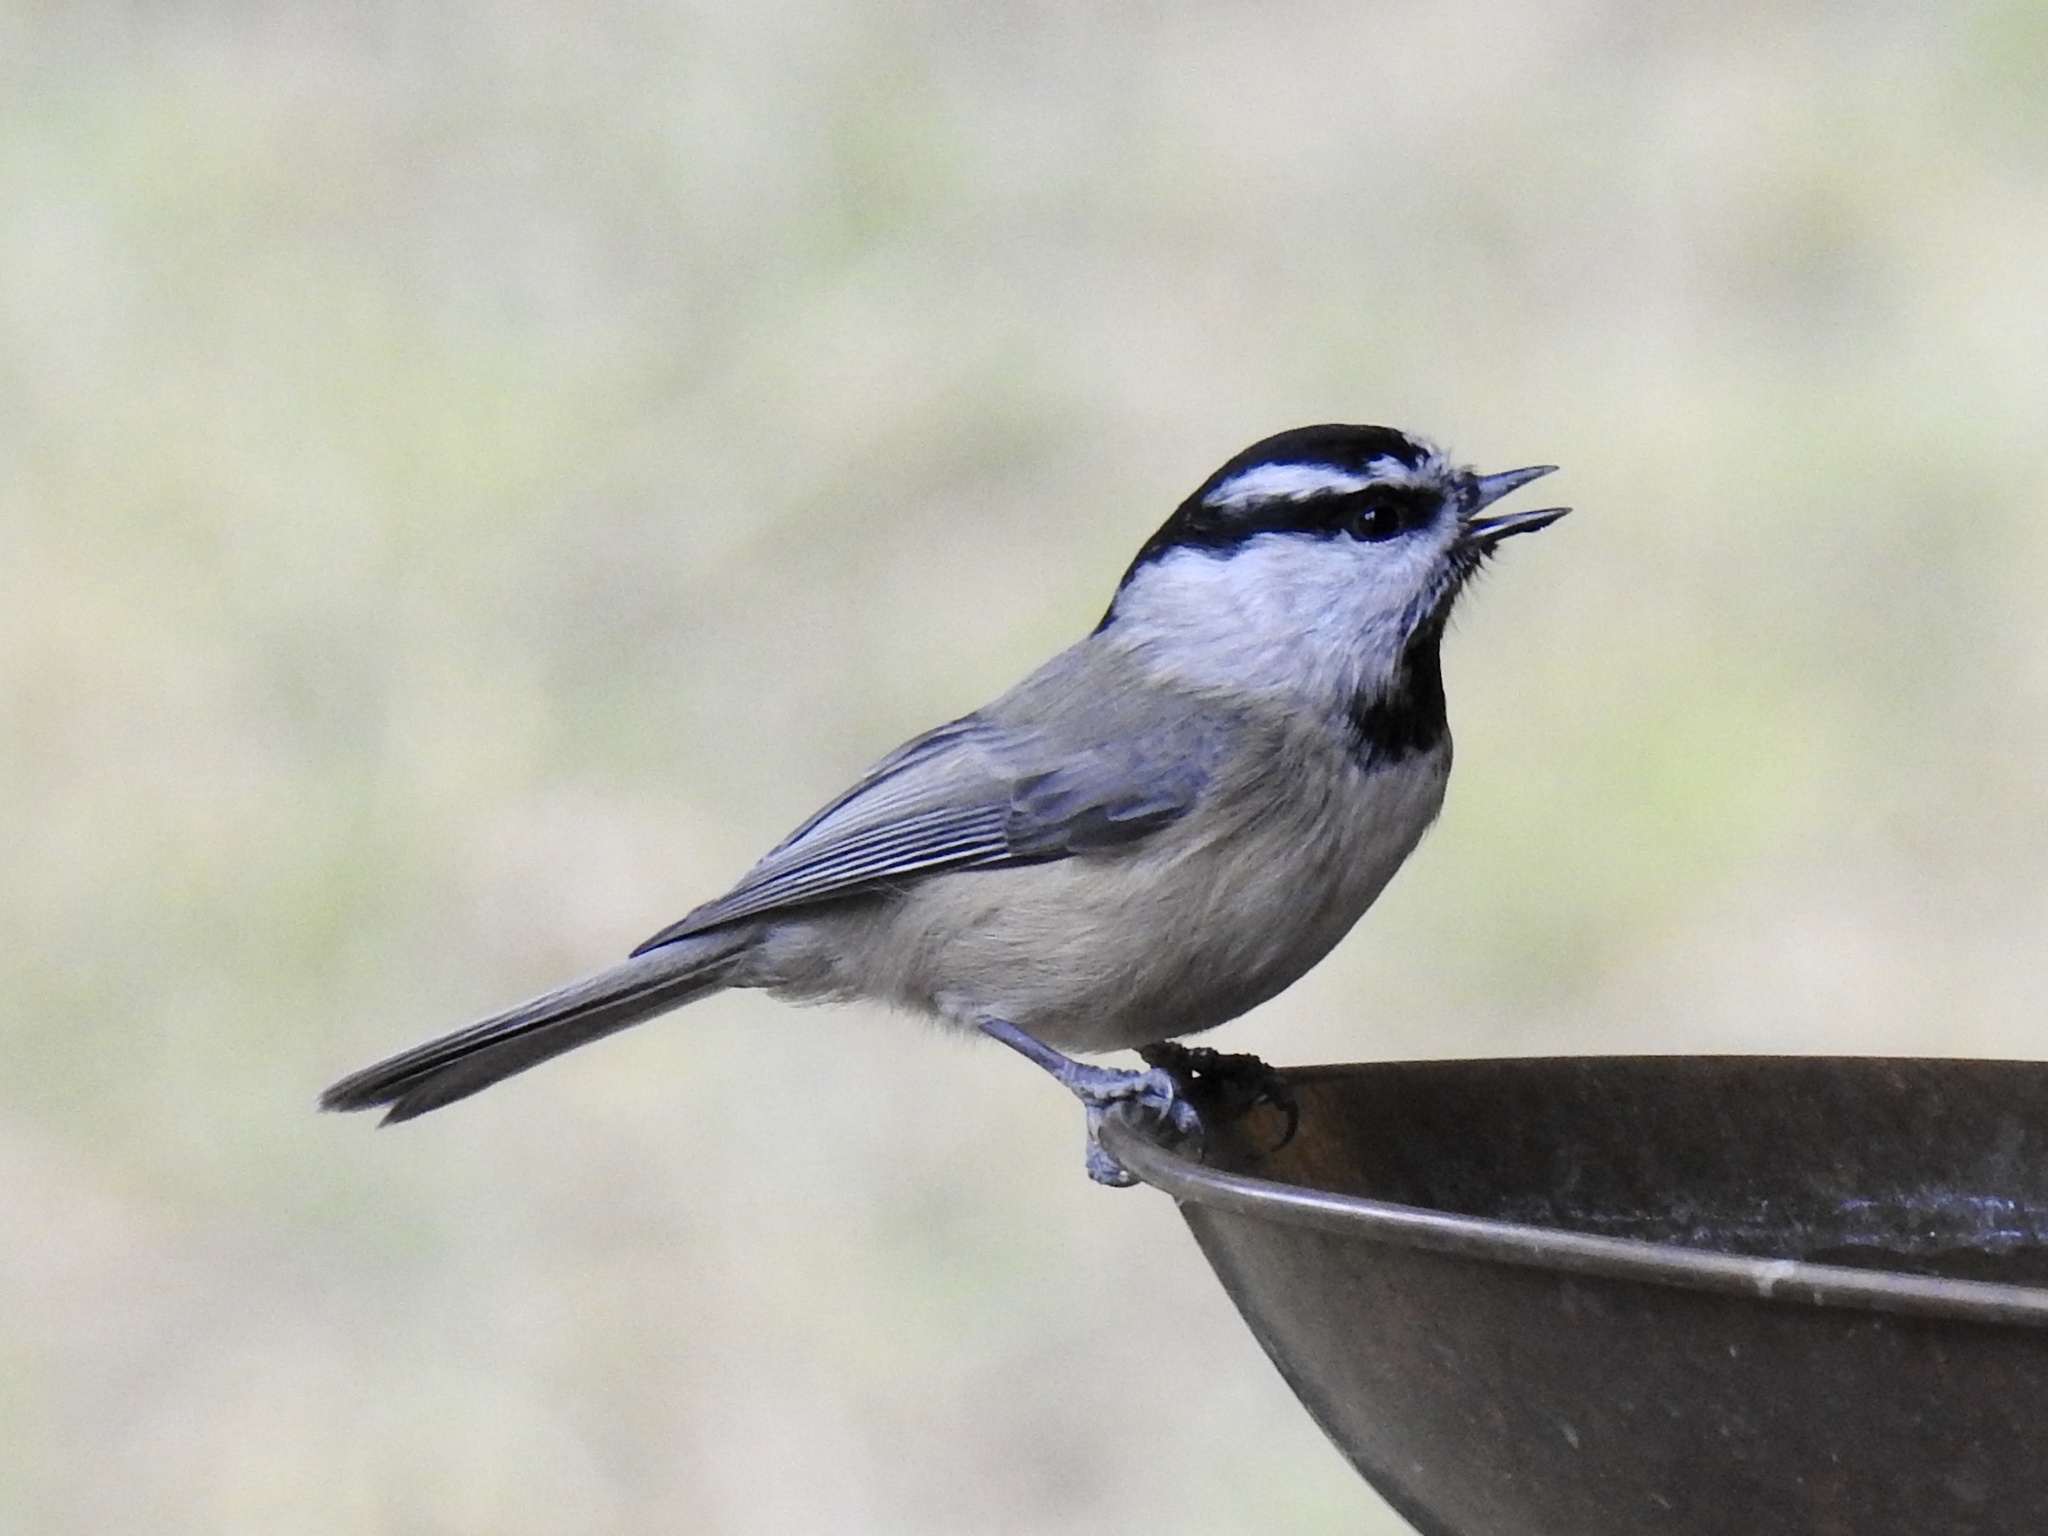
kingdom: Animalia
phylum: Chordata
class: Aves
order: Passeriformes
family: Paridae
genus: Poecile
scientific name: Poecile gambeli
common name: Mountain chickadee
